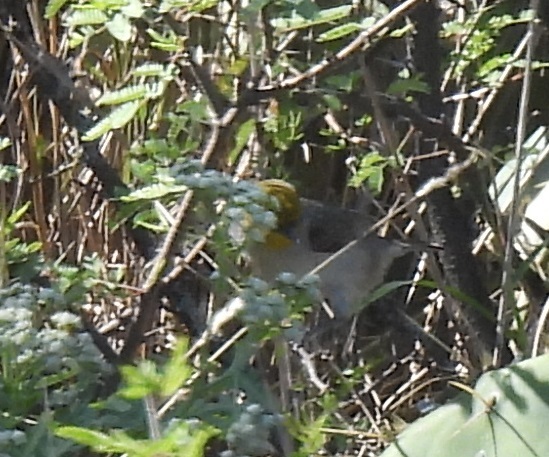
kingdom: Animalia
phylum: Chordata
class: Aves
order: Passeriformes
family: Remizidae
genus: Auriparus
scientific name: Auriparus flaviceps
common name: Verdin
